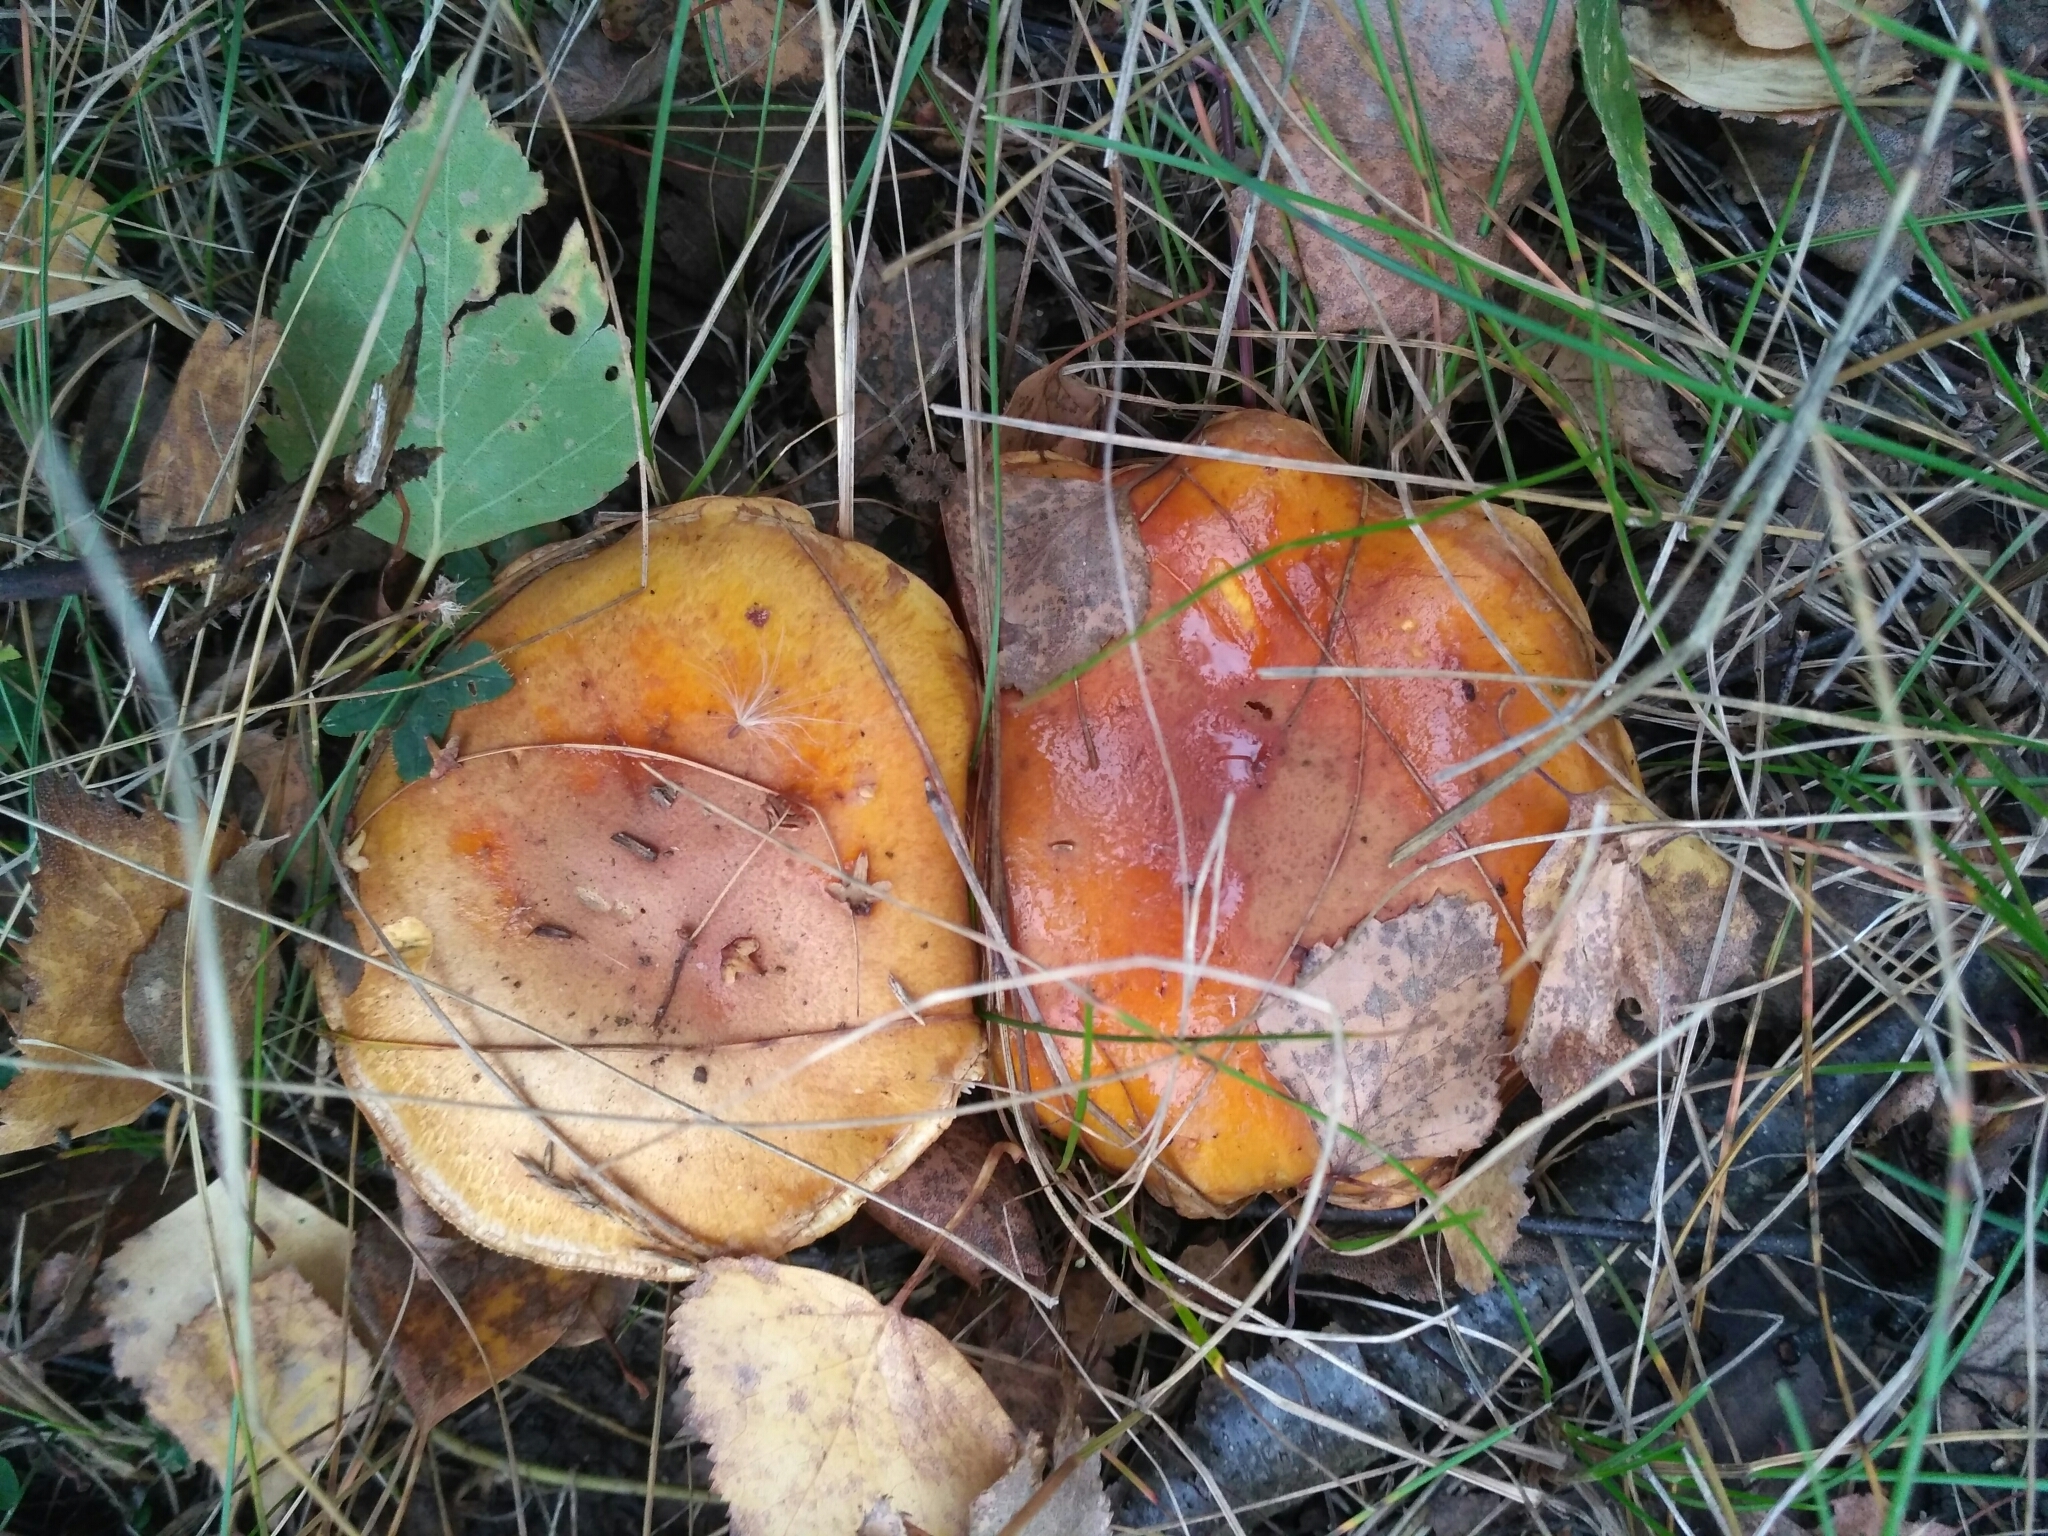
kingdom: Fungi
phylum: Basidiomycota
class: Agaricomycetes
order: Agaricales
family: Cortinariaceae
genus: Phlegmacium
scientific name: Phlegmacium triumphans
